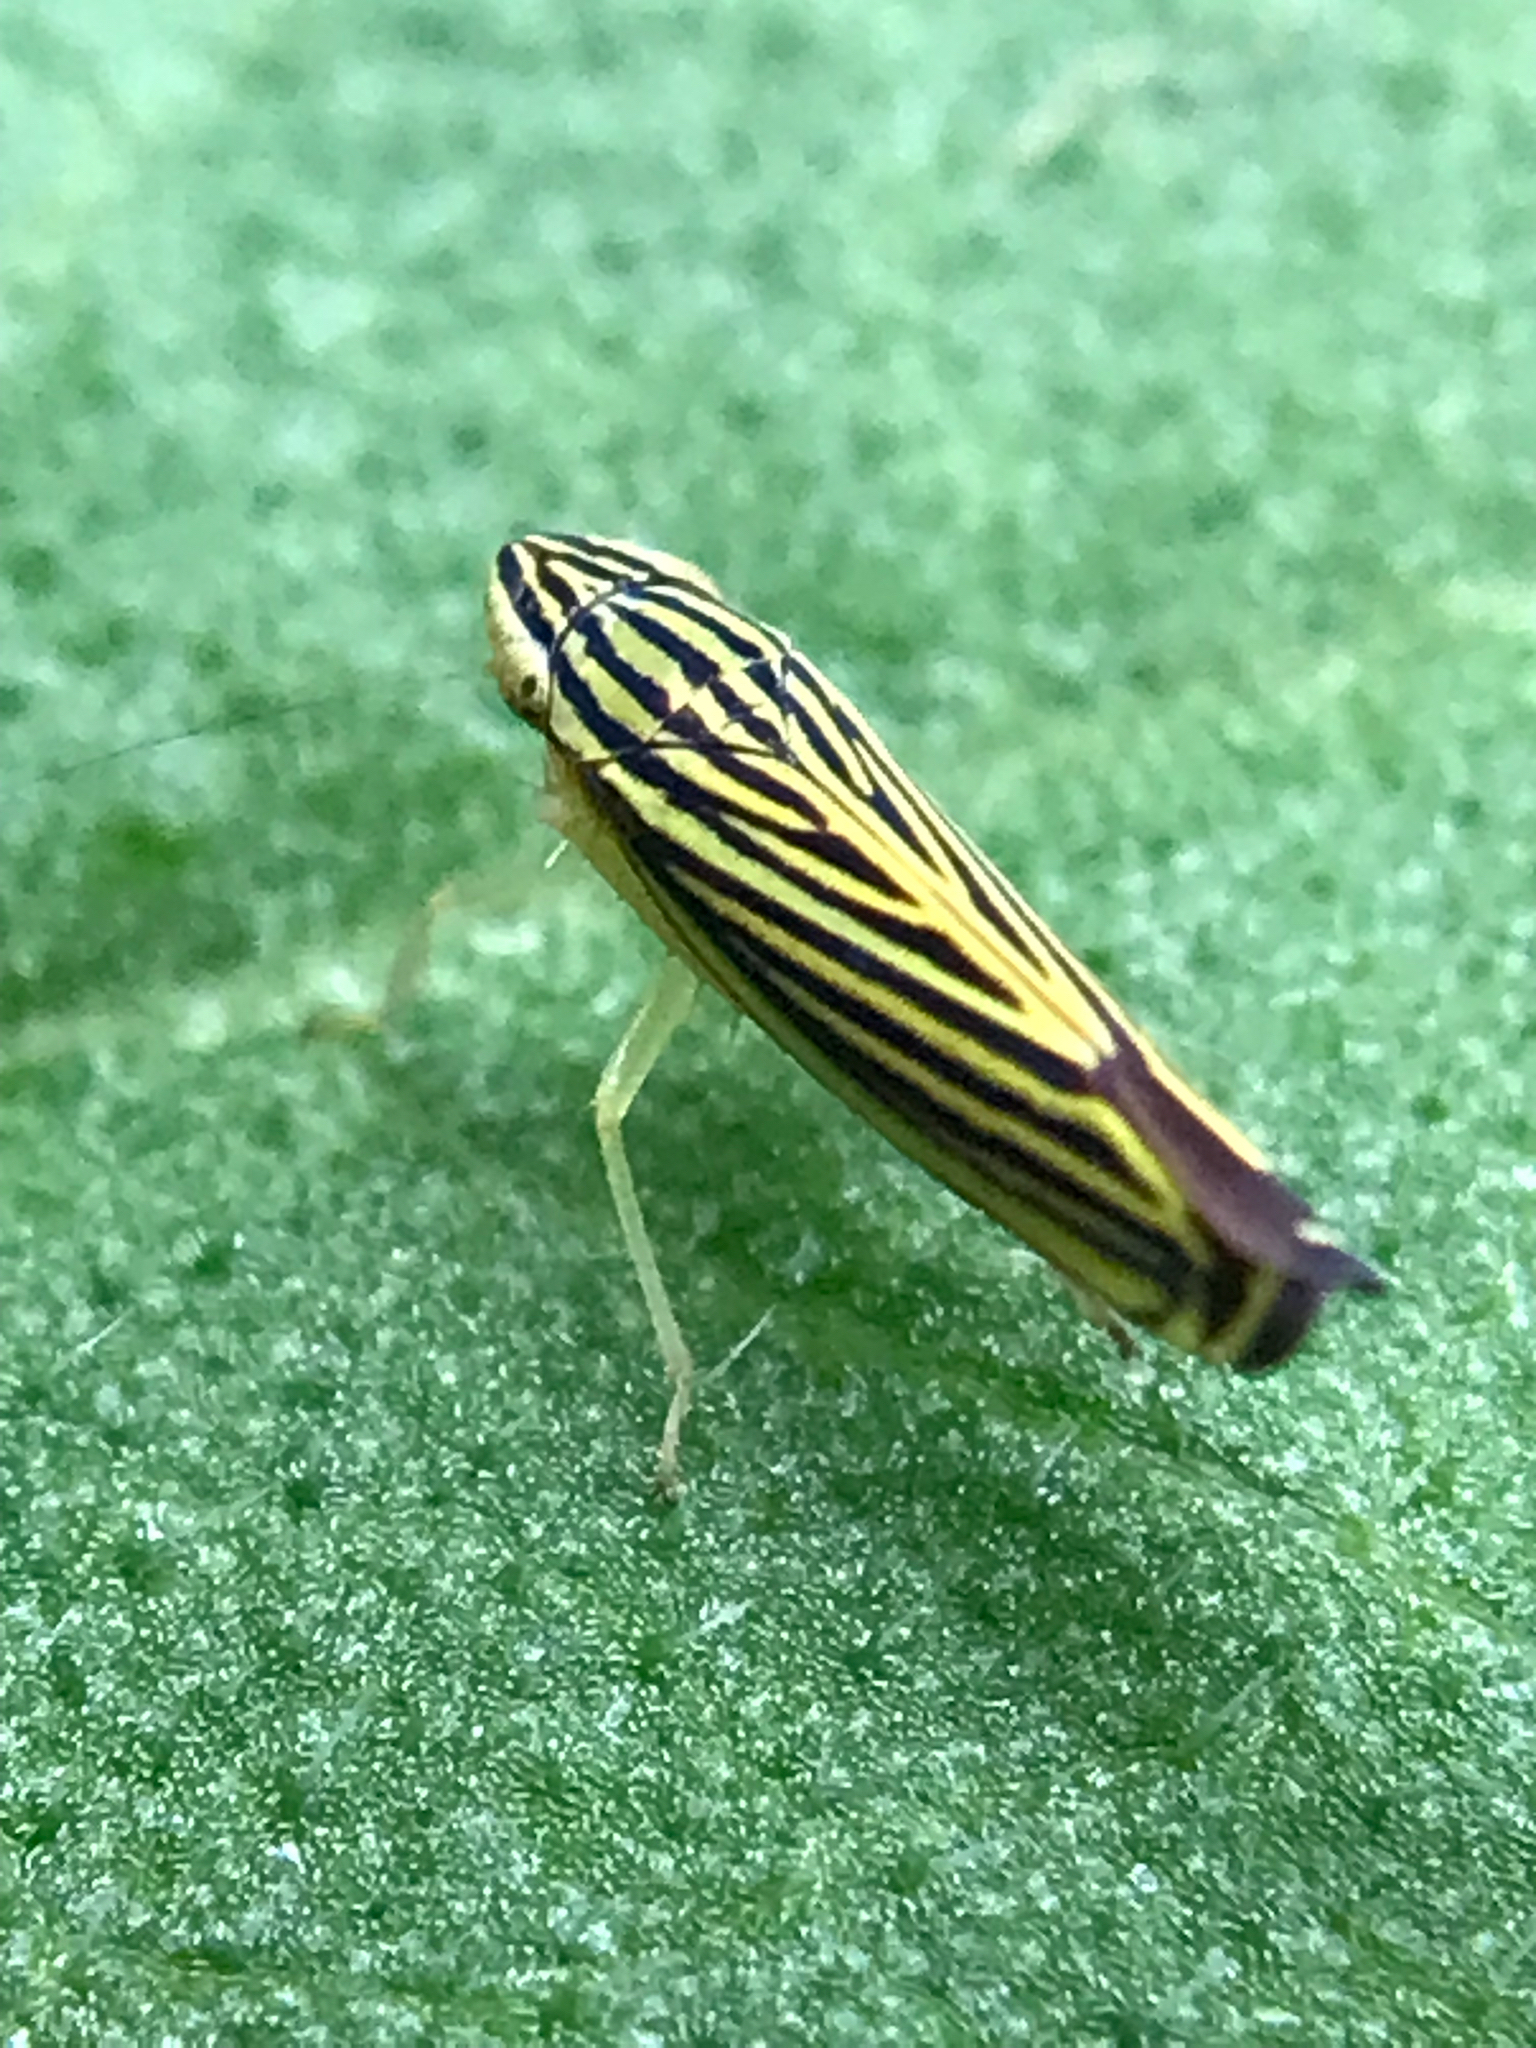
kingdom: Animalia
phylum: Arthropoda
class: Insecta
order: Hemiptera
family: Cicadellidae
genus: Sibovia
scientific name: Sibovia occatoria
